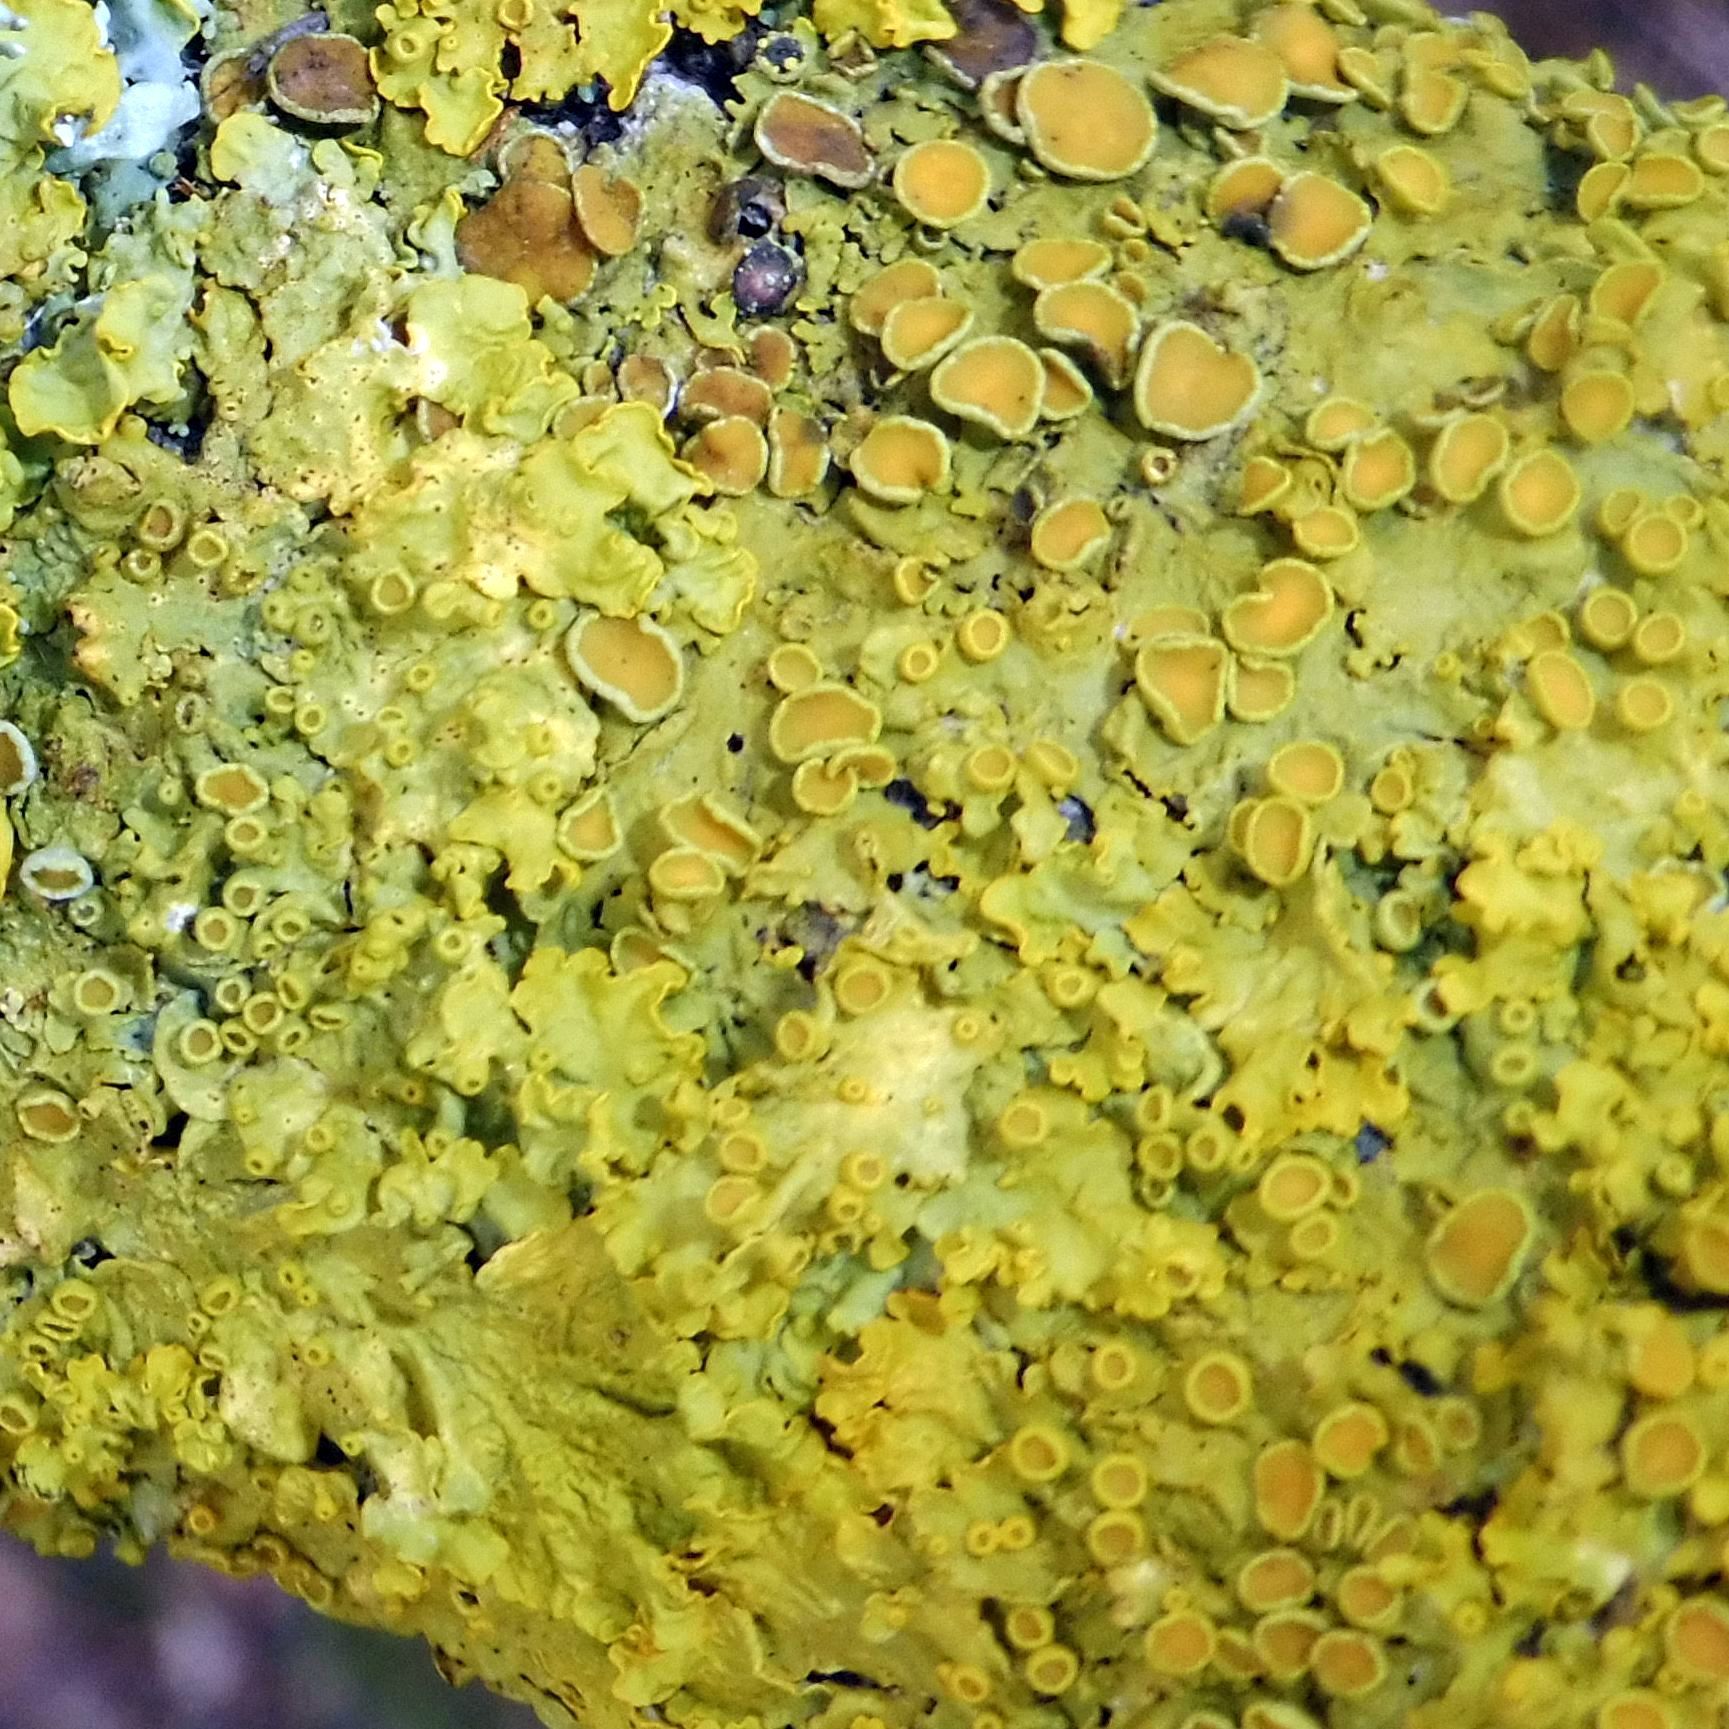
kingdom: Fungi
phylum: Ascomycota
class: Lecanoromycetes
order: Teloschistales
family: Teloschistaceae
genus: Xanthoria
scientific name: Xanthoria parietina
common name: Common orange lichen
